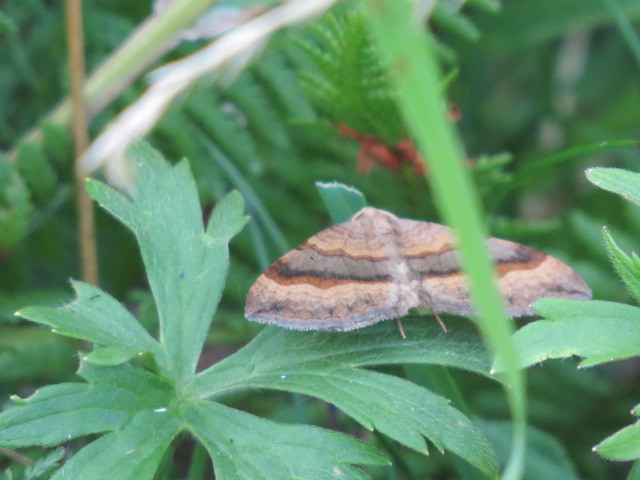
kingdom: Animalia
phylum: Arthropoda
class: Insecta
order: Lepidoptera
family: Geometridae
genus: Scotopteryx
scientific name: Scotopteryx chenopodiata
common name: Shaded broad-bar
